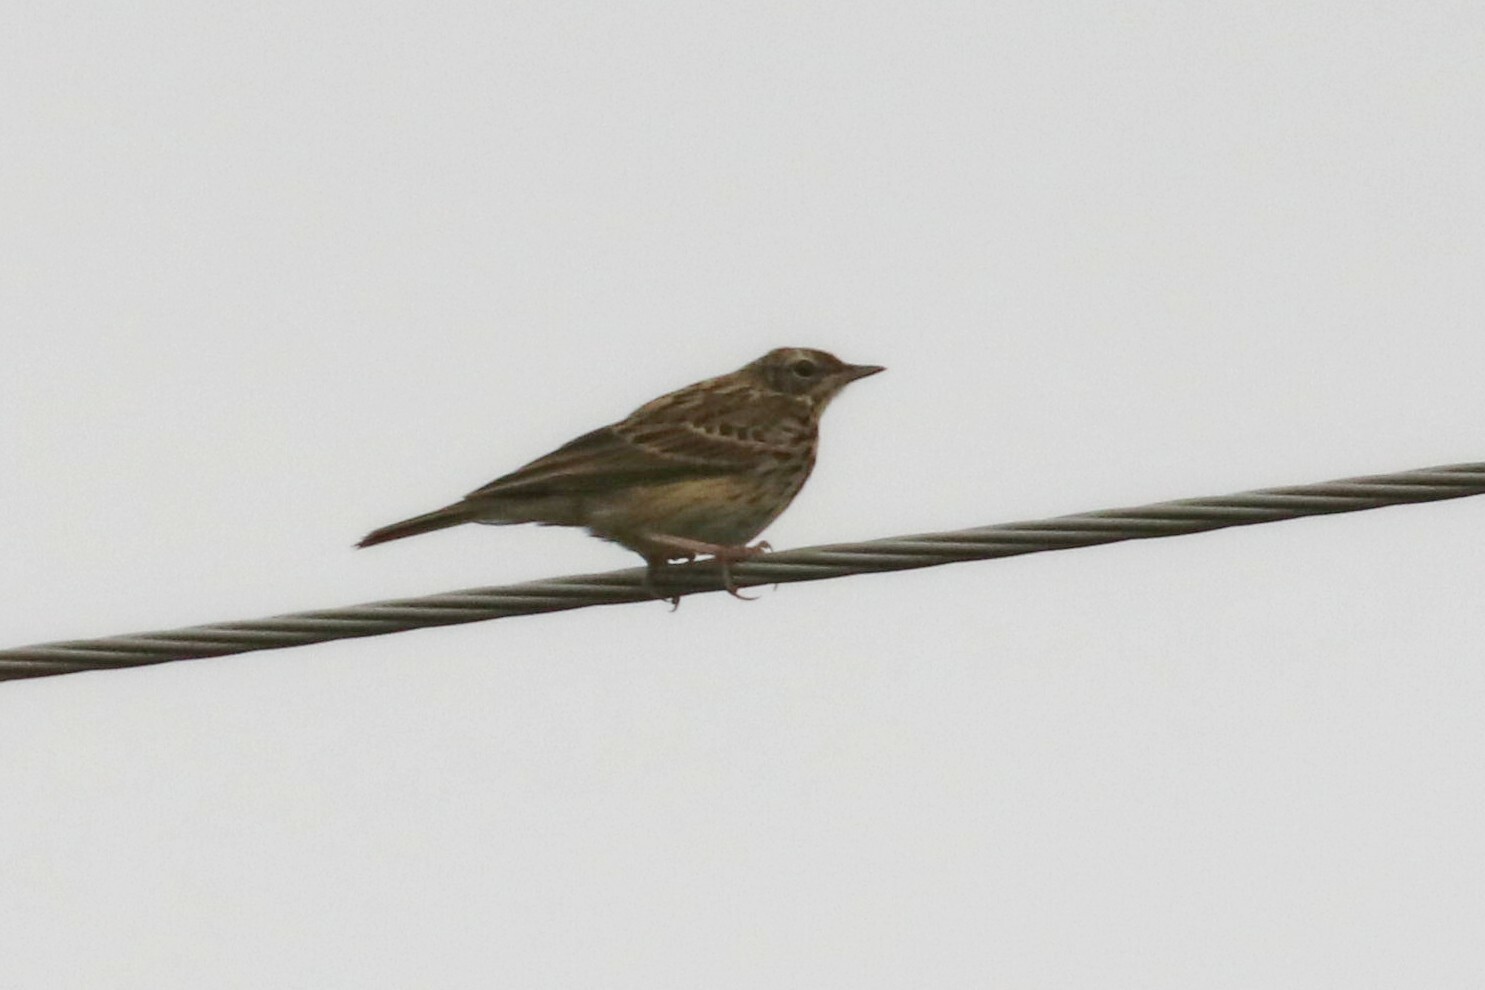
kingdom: Animalia
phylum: Chordata
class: Aves
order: Passeriformes
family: Motacillidae
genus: Anthus
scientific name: Anthus trivialis
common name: Tree pipit
